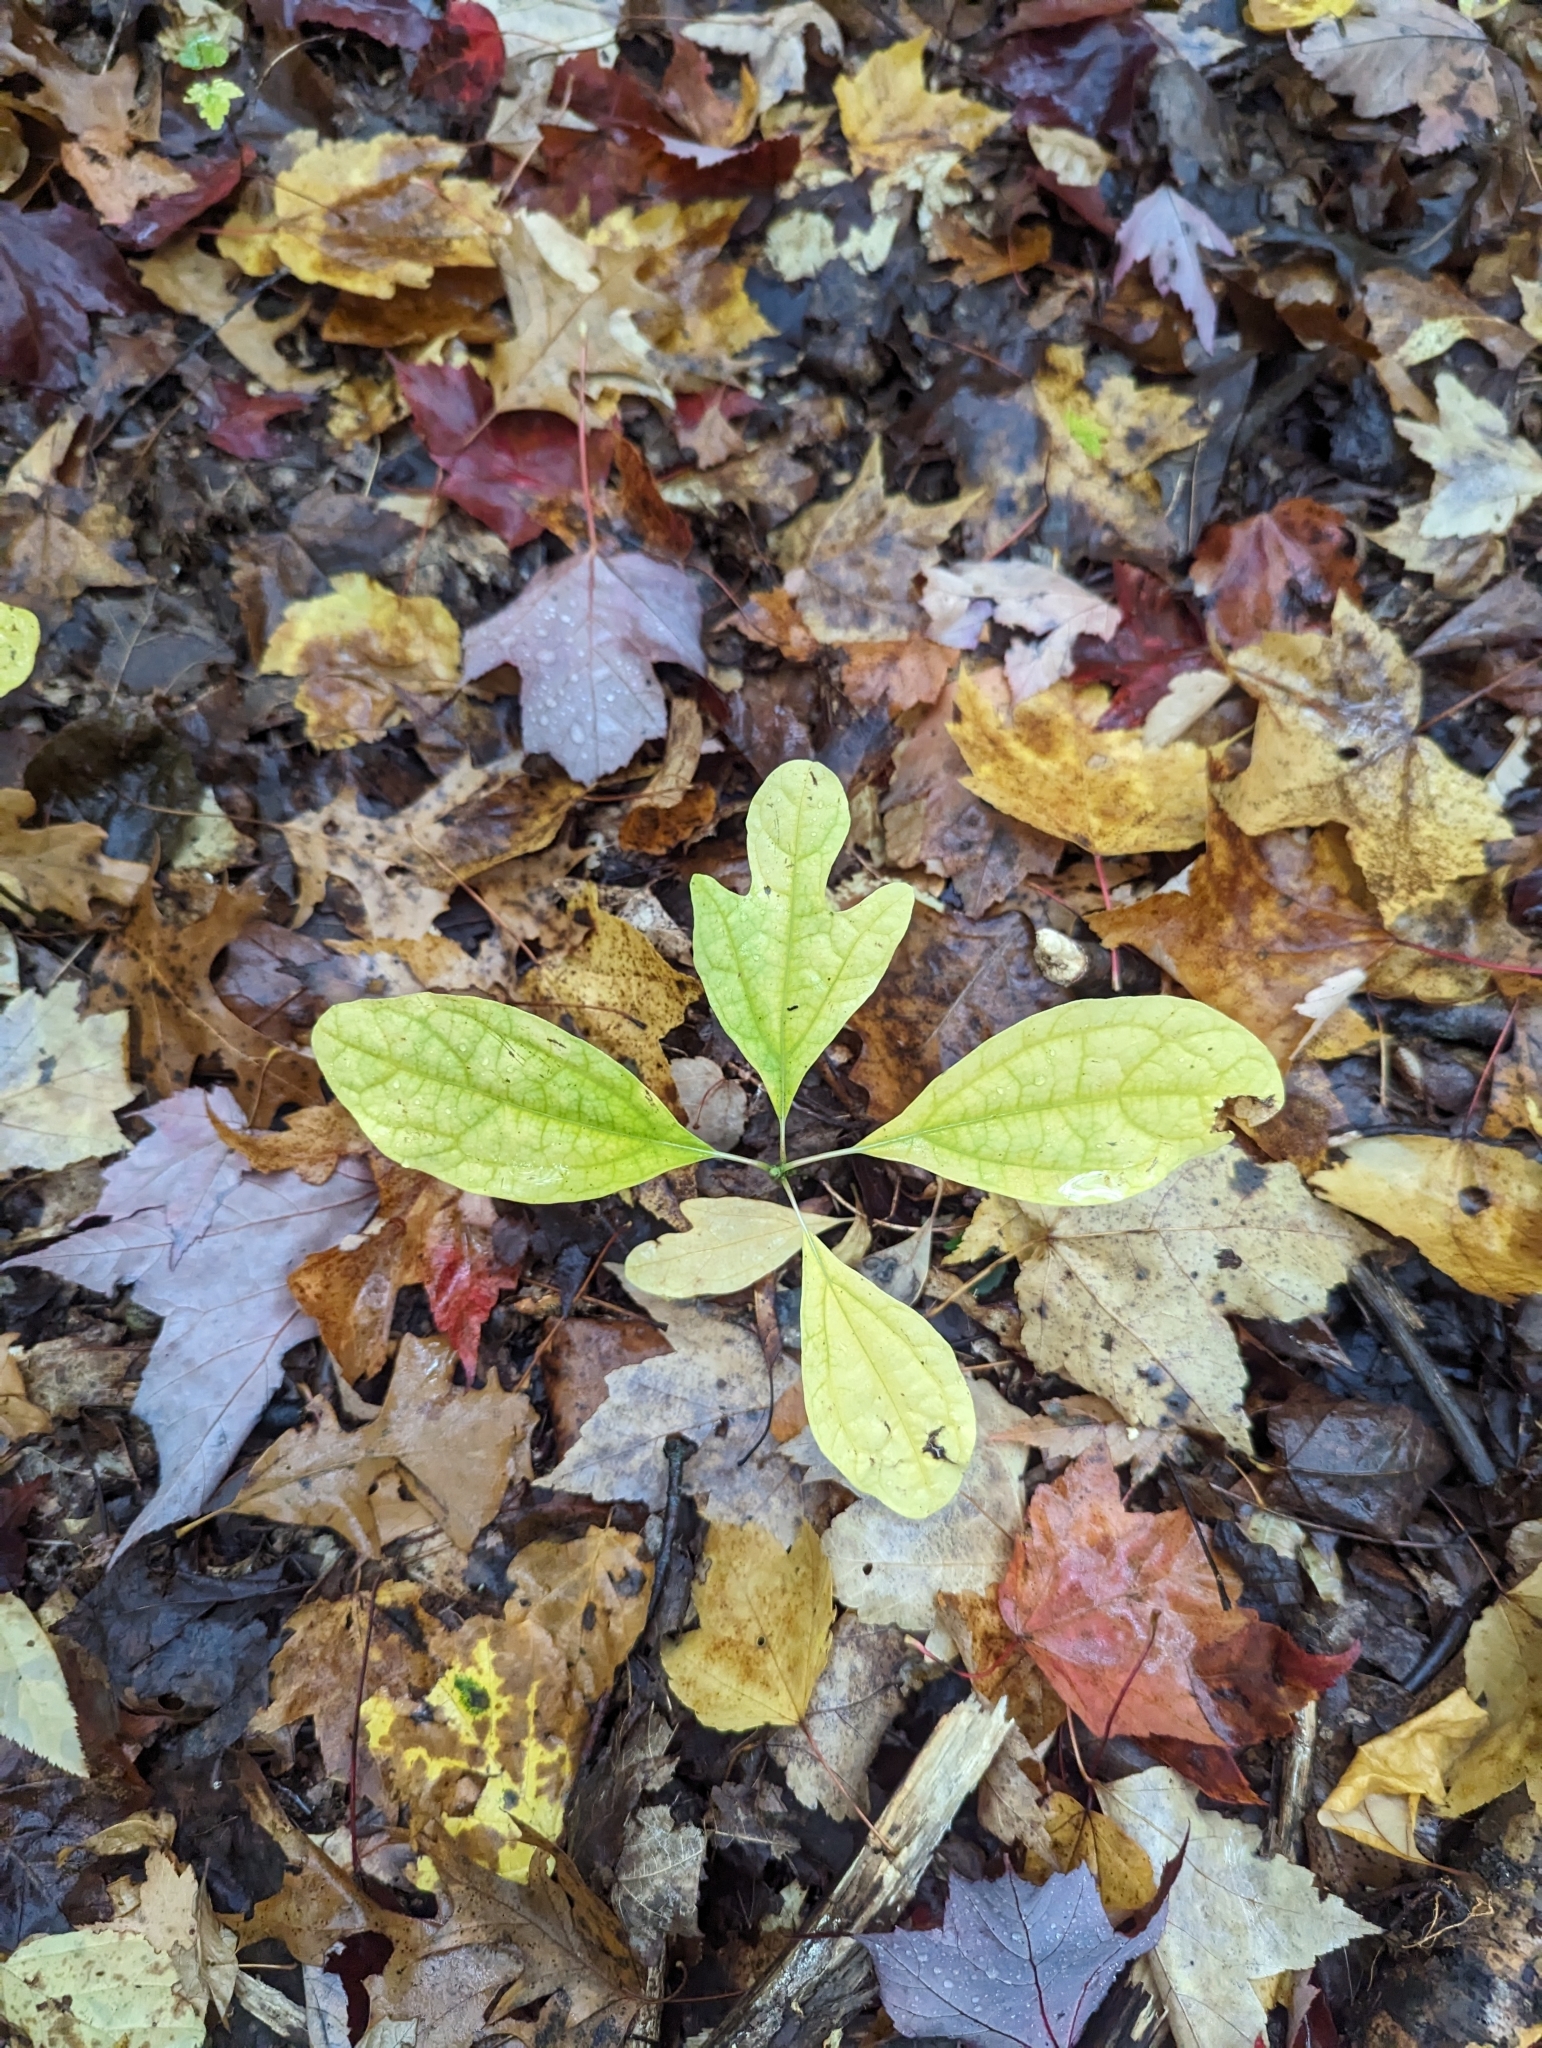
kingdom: Plantae
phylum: Tracheophyta
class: Magnoliopsida
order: Laurales
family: Lauraceae
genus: Sassafras
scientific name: Sassafras albidum
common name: Sassafras
